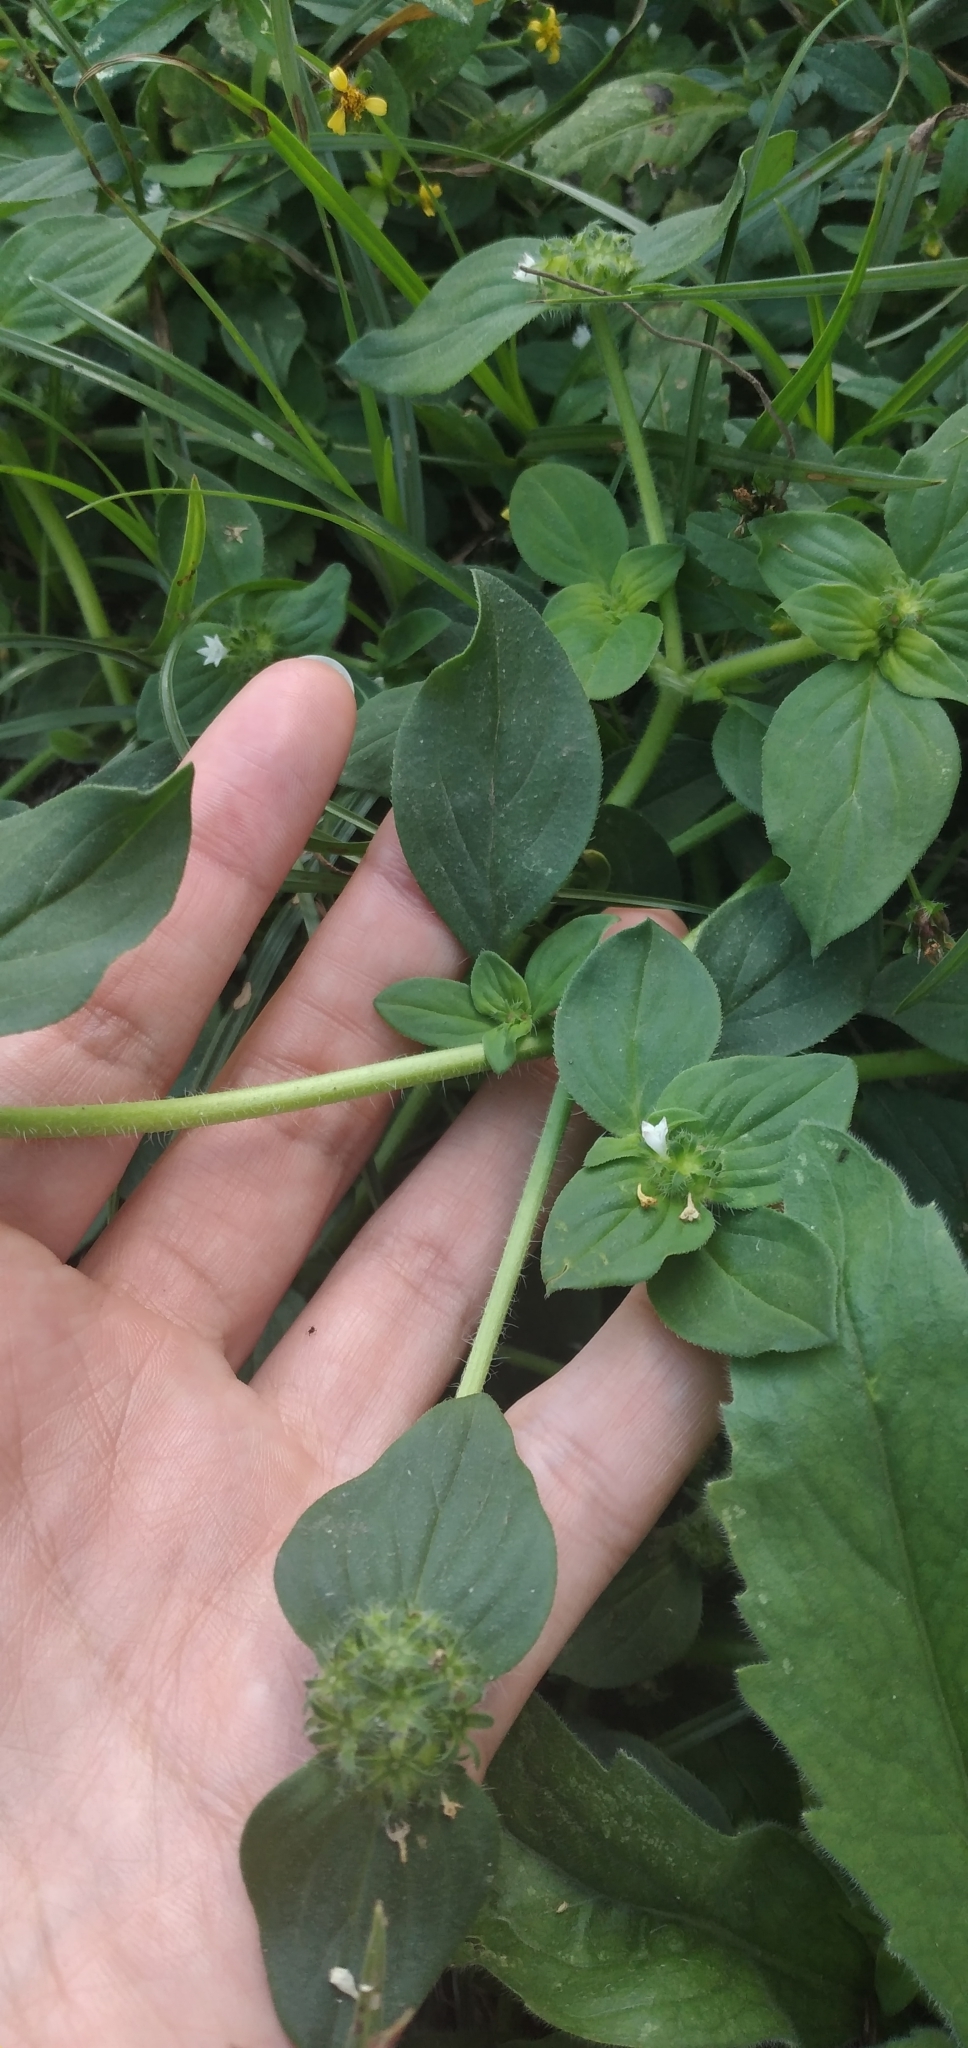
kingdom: Plantae
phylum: Tracheophyta
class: Magnoliopsida
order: Gentianales
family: Rubiaceae
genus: Richardia
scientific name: Richardia brasiliensis
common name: Tropical mexican clover
